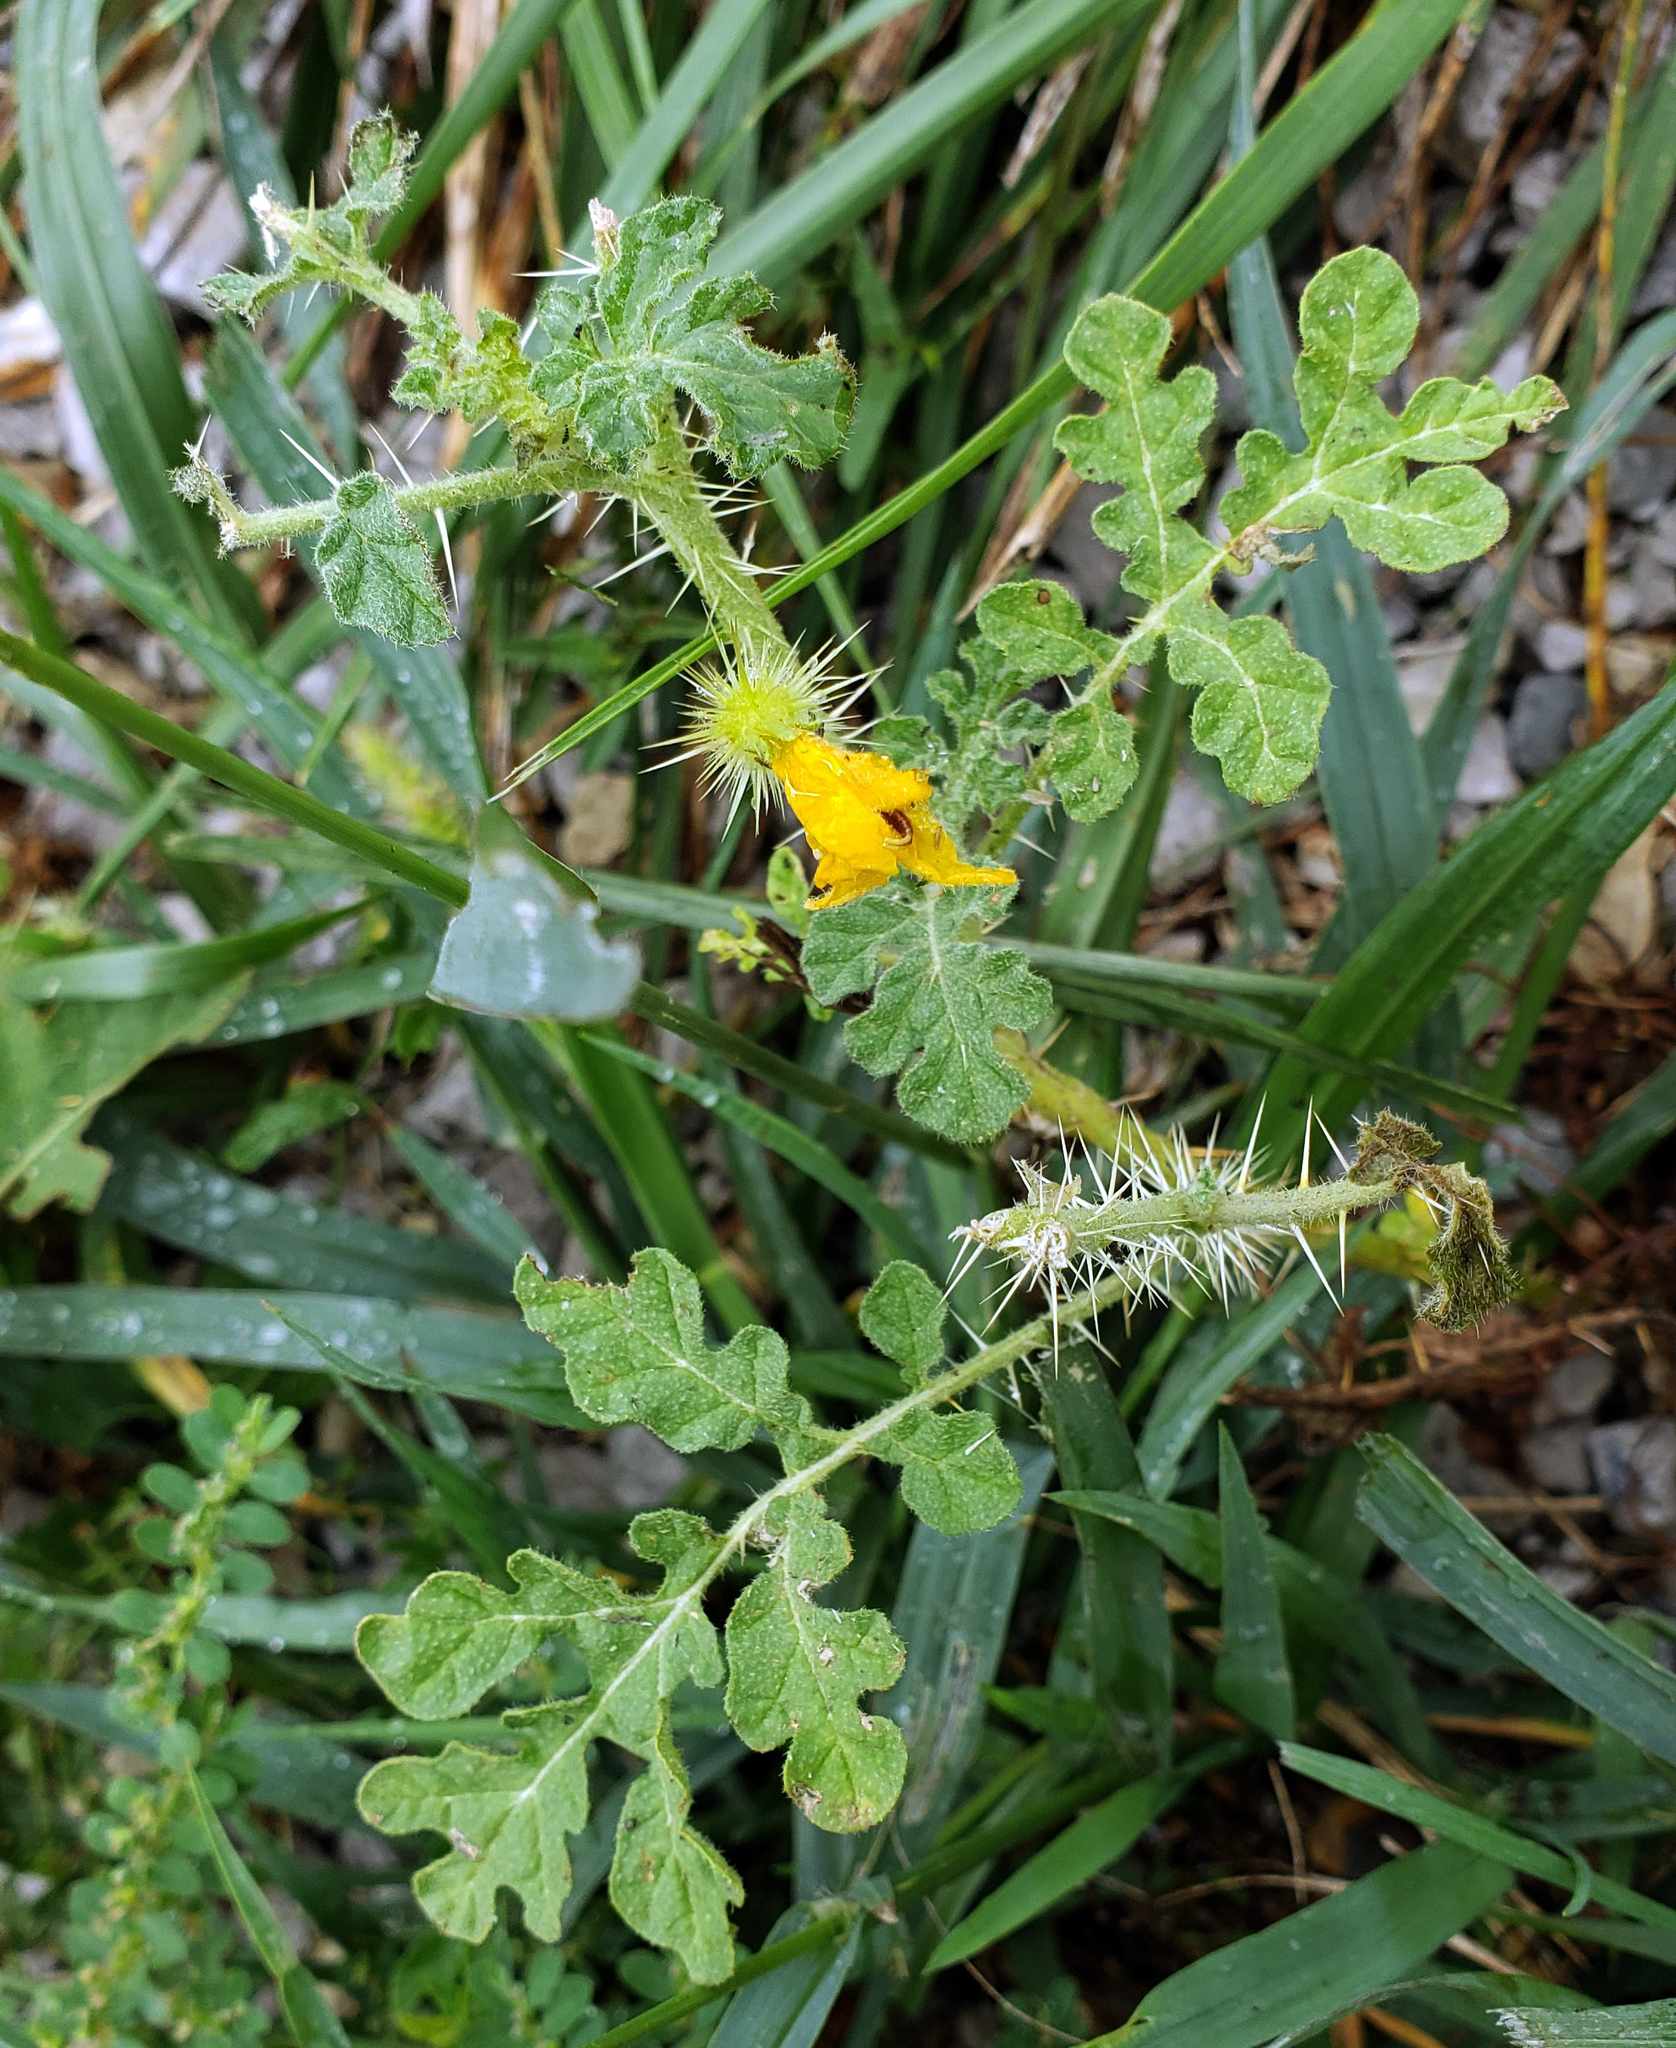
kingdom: Plantae
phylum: Tracheophyta
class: Magnoliopsida
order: Solanales
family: Solanaceae
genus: Solanum
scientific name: Solanum angustifolium
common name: Buffalobur nightshade
